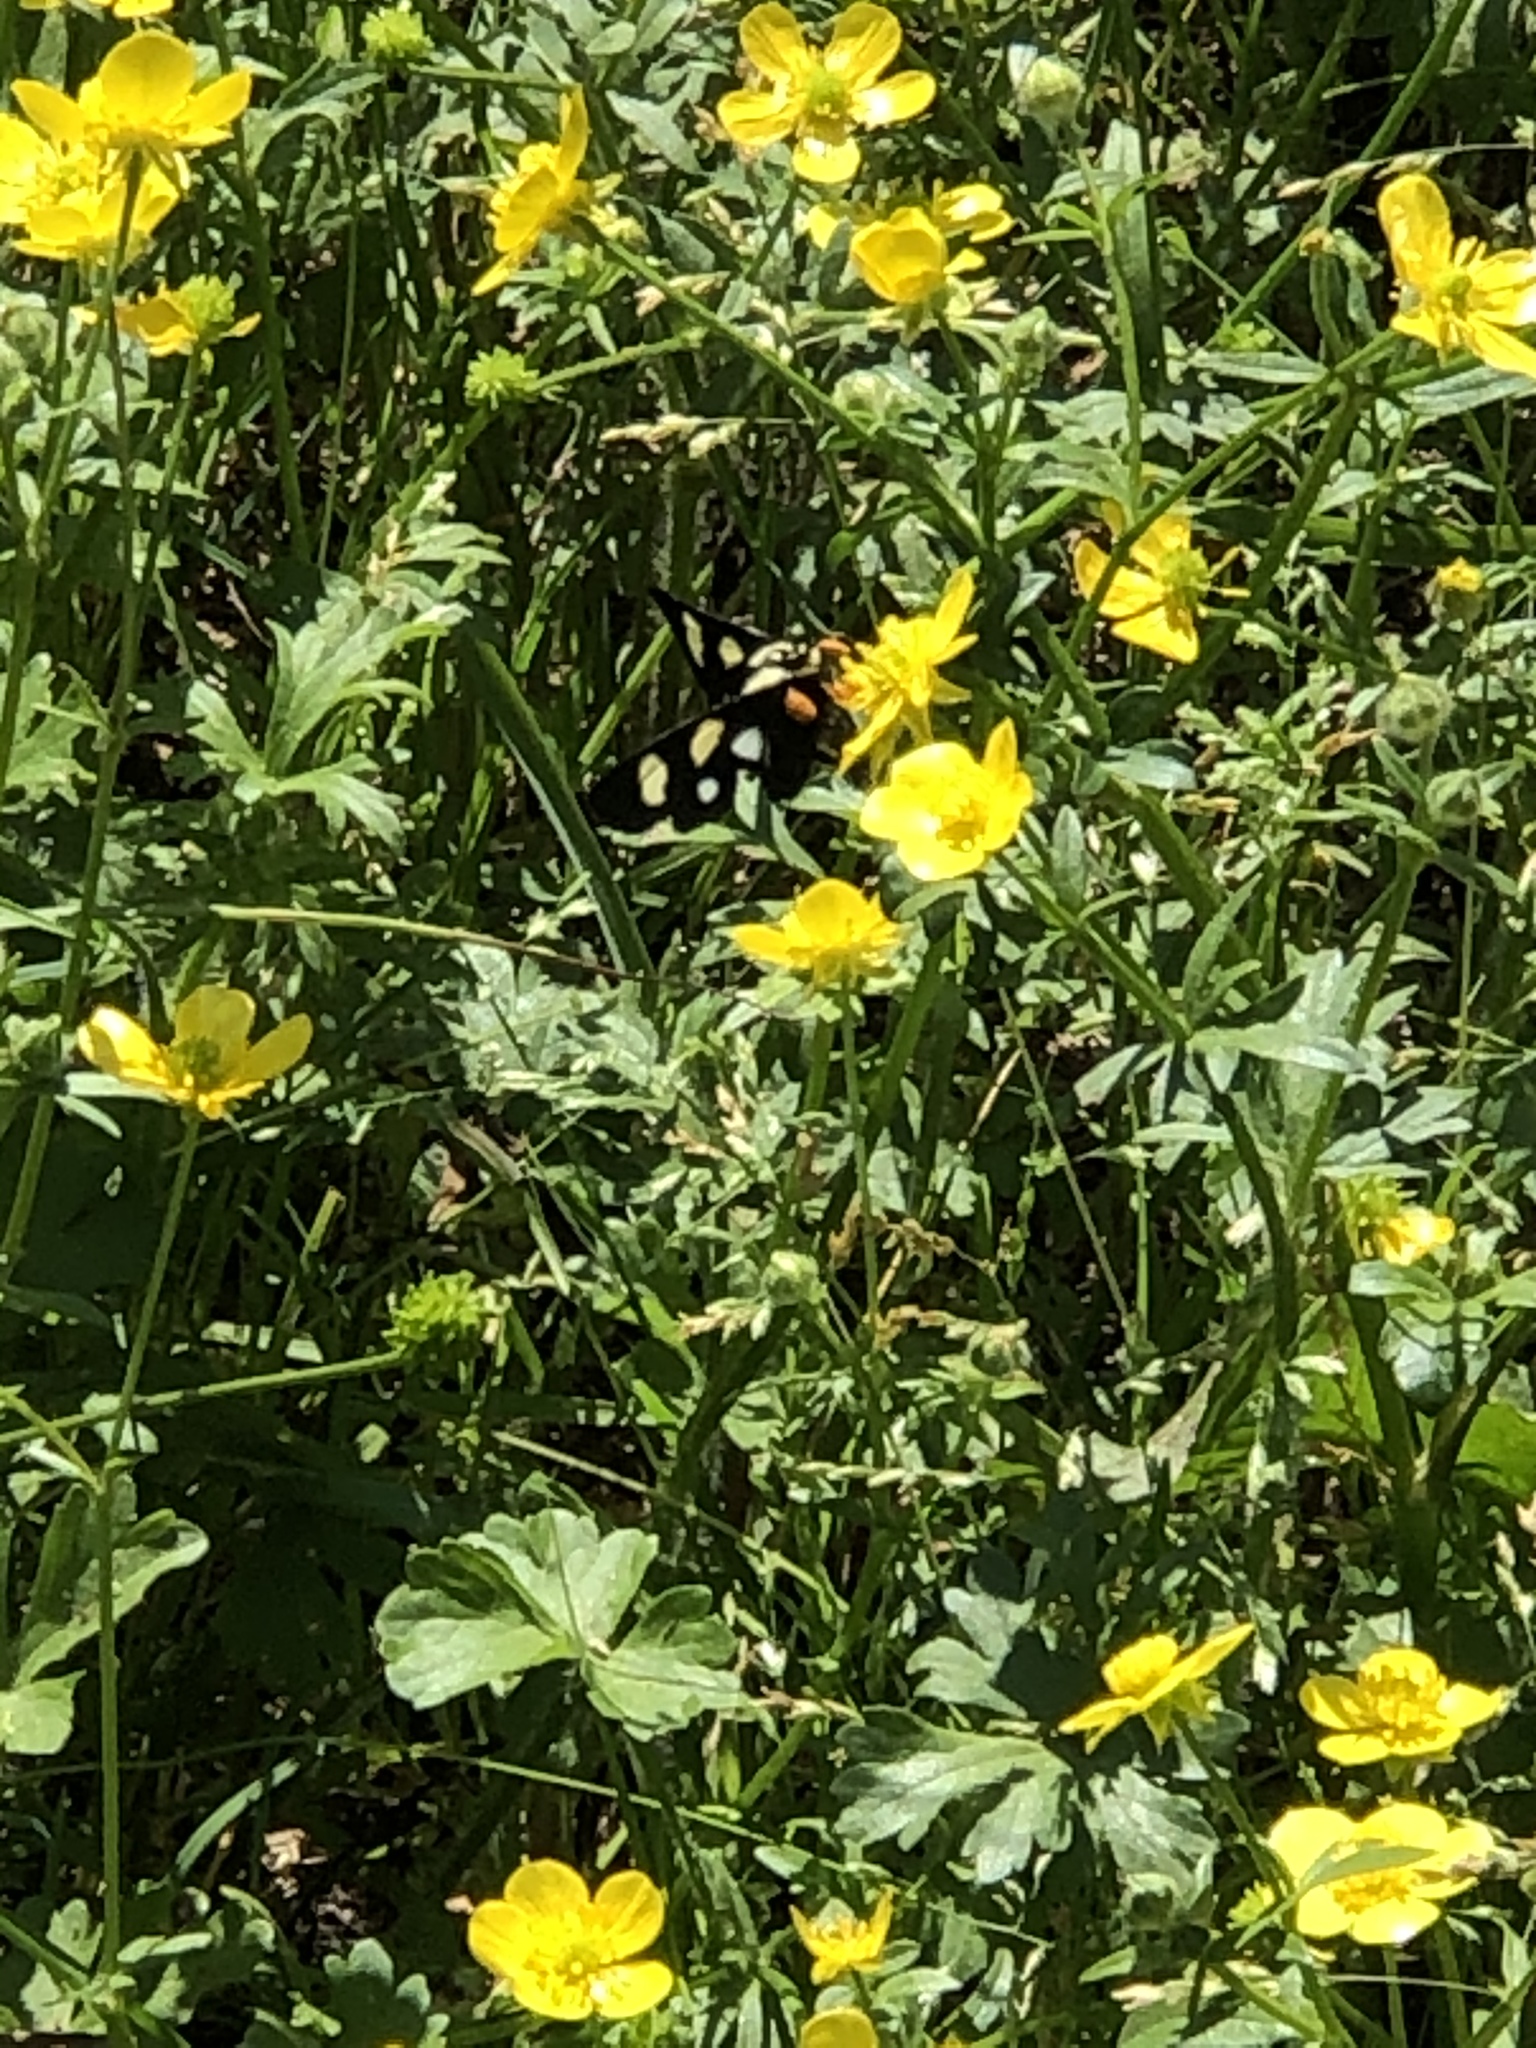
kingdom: Animalia
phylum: Arthropoda
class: Insecta
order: Lepidoptera
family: Noctuidae
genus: Alypia
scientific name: Alypia octomaculata
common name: Eight-spotted forester
